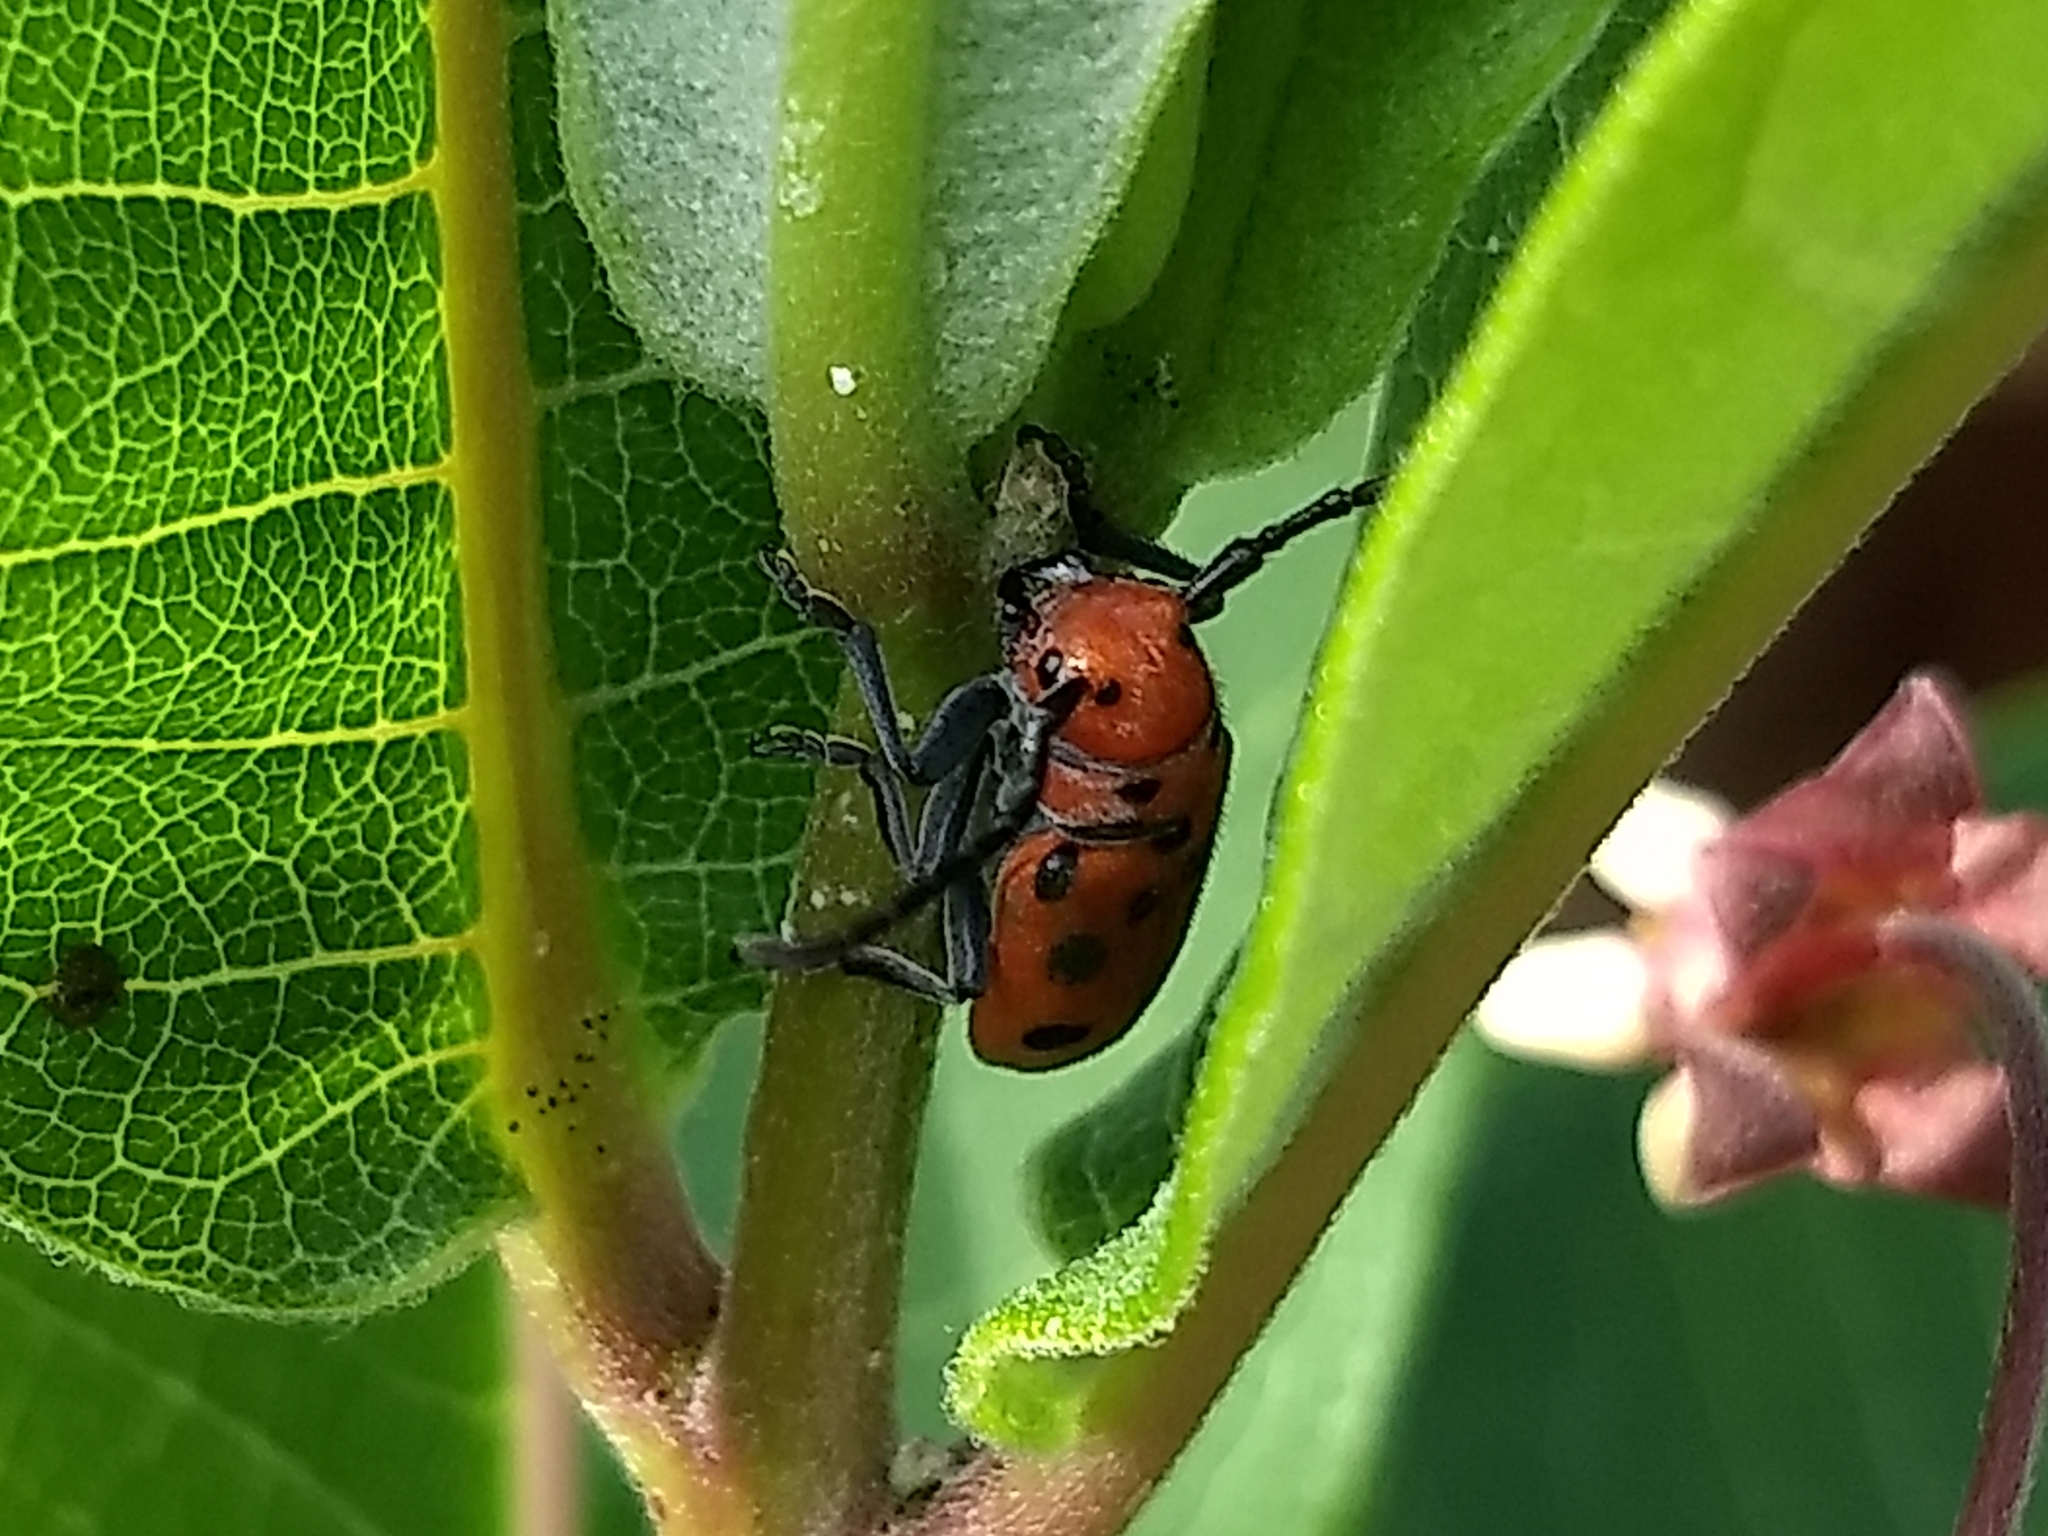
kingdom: Animalia
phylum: Arthropoda
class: Insecta
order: Coleoptera
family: Cerambycidae
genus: Tetraopes
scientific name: Tetraopes tetrophthalmus
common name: Red milkweed beetle
